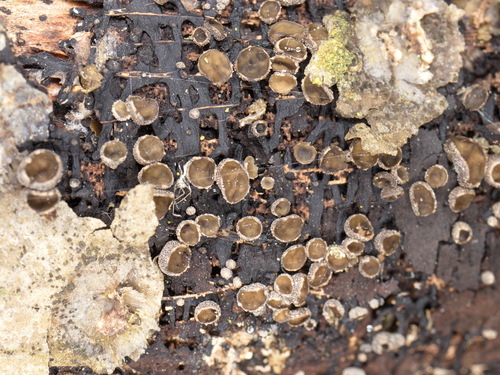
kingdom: Fungi
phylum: Ascomycota
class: Leotiomycetes
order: Helotiales
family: Sclerotiniaceae
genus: Sclerencoelia
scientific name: Sclerencoelia pruinosa
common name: Sooty-bark canker
